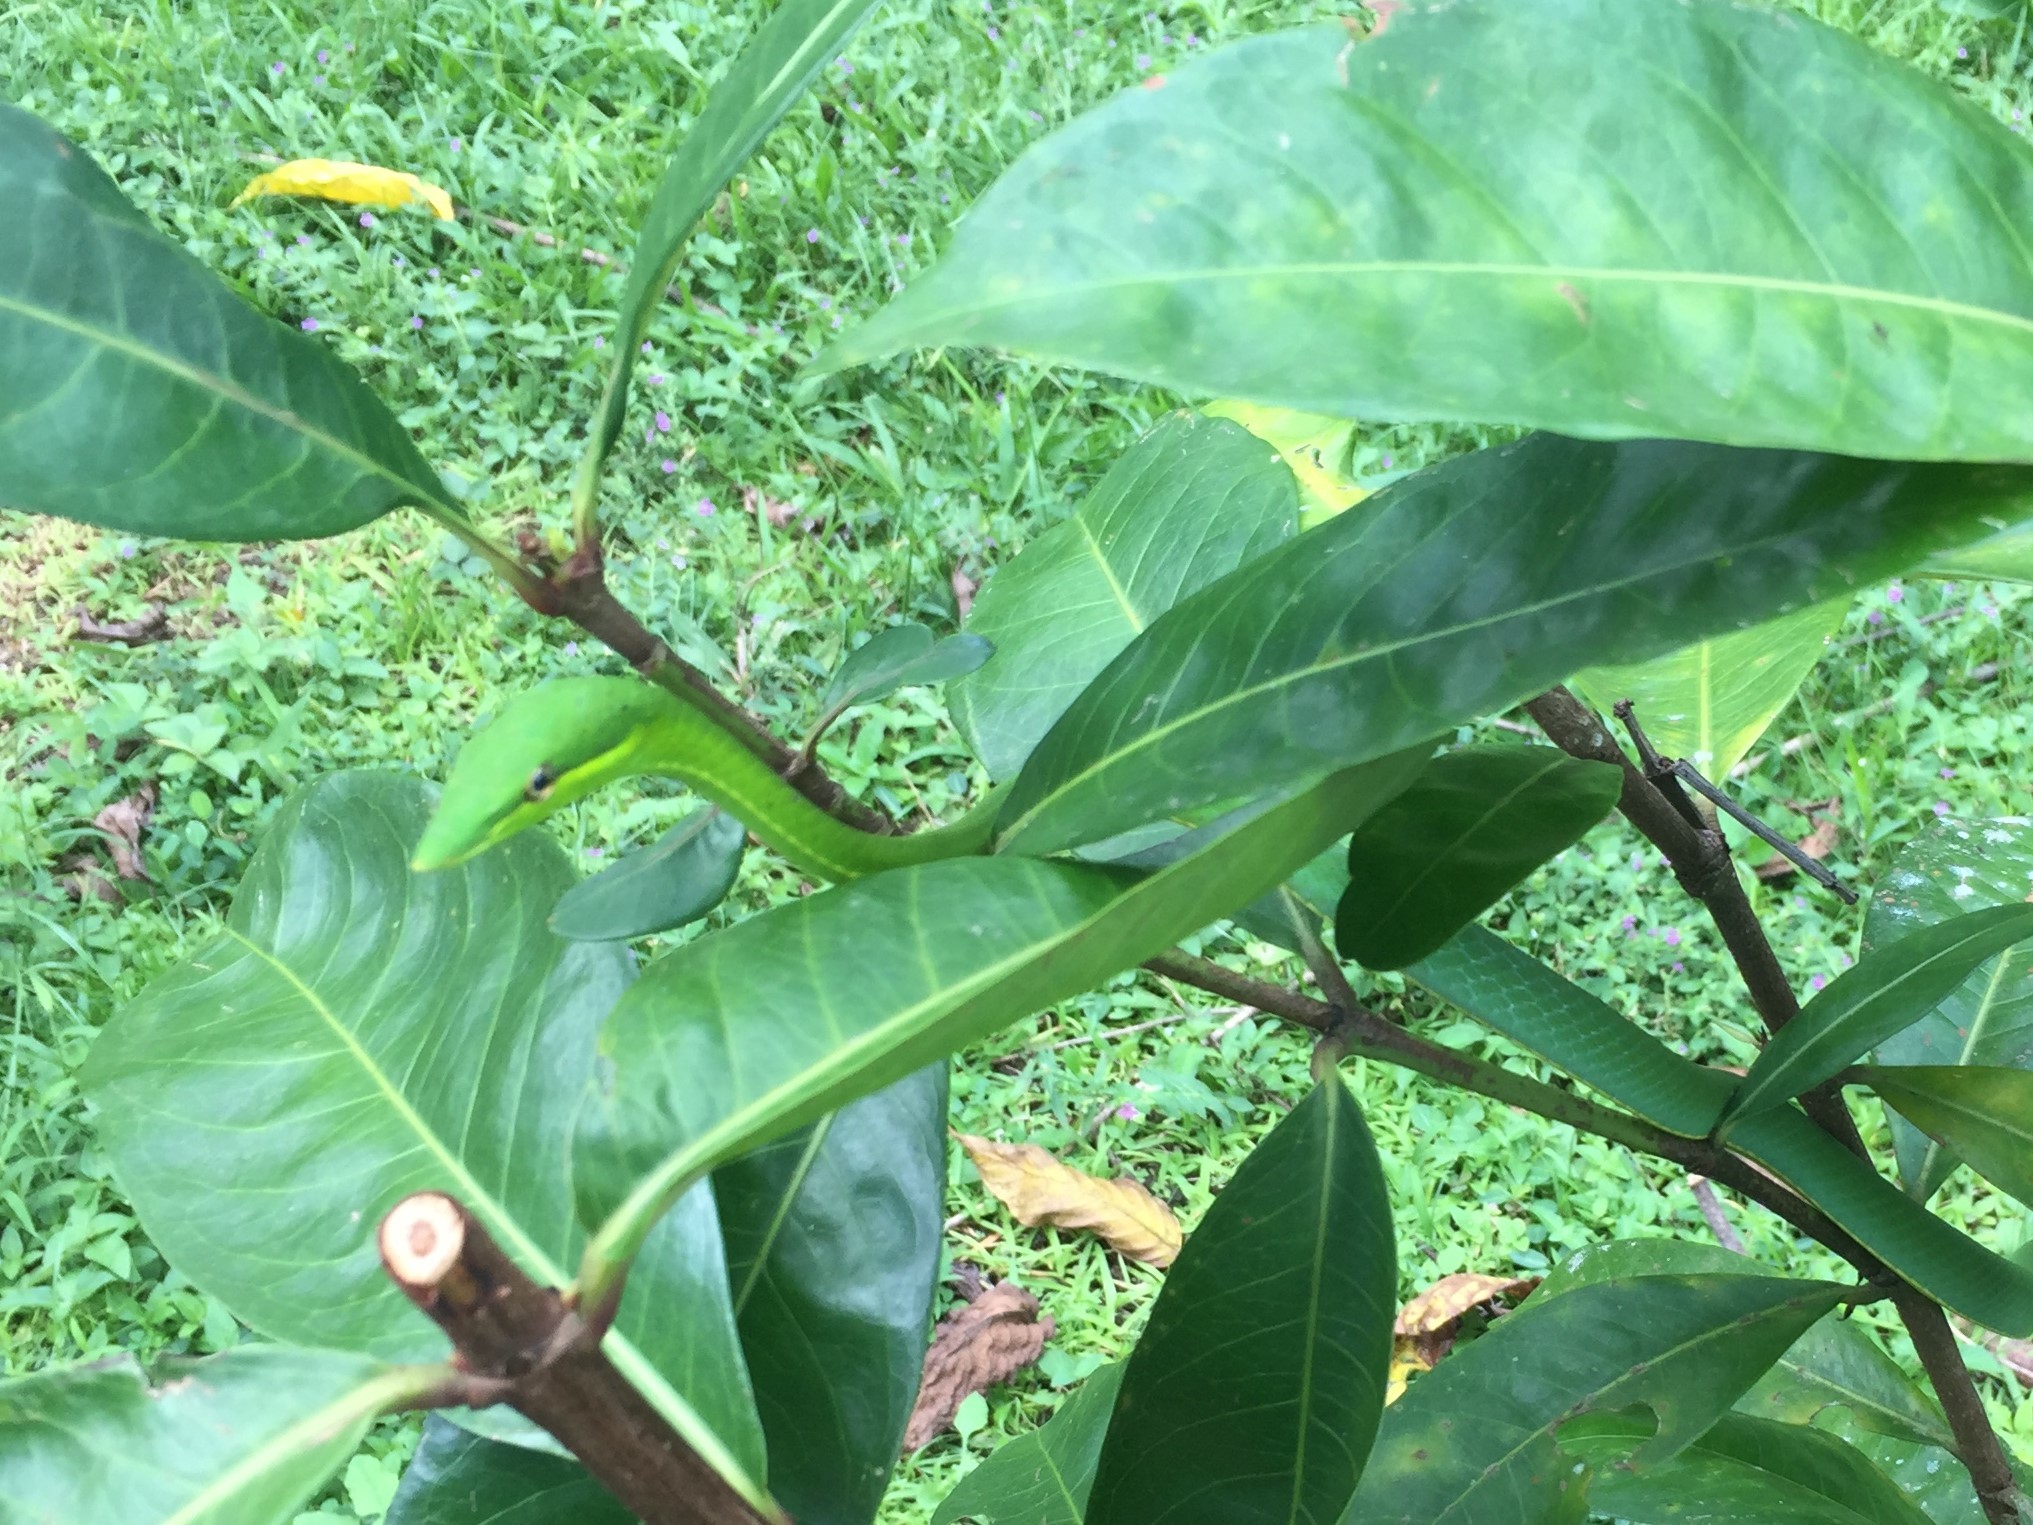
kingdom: Animalia
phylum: Chordata
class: Squamata
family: Colubridae
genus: Oxybelis
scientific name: Oxybelis fulgidus
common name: Green vine snake
